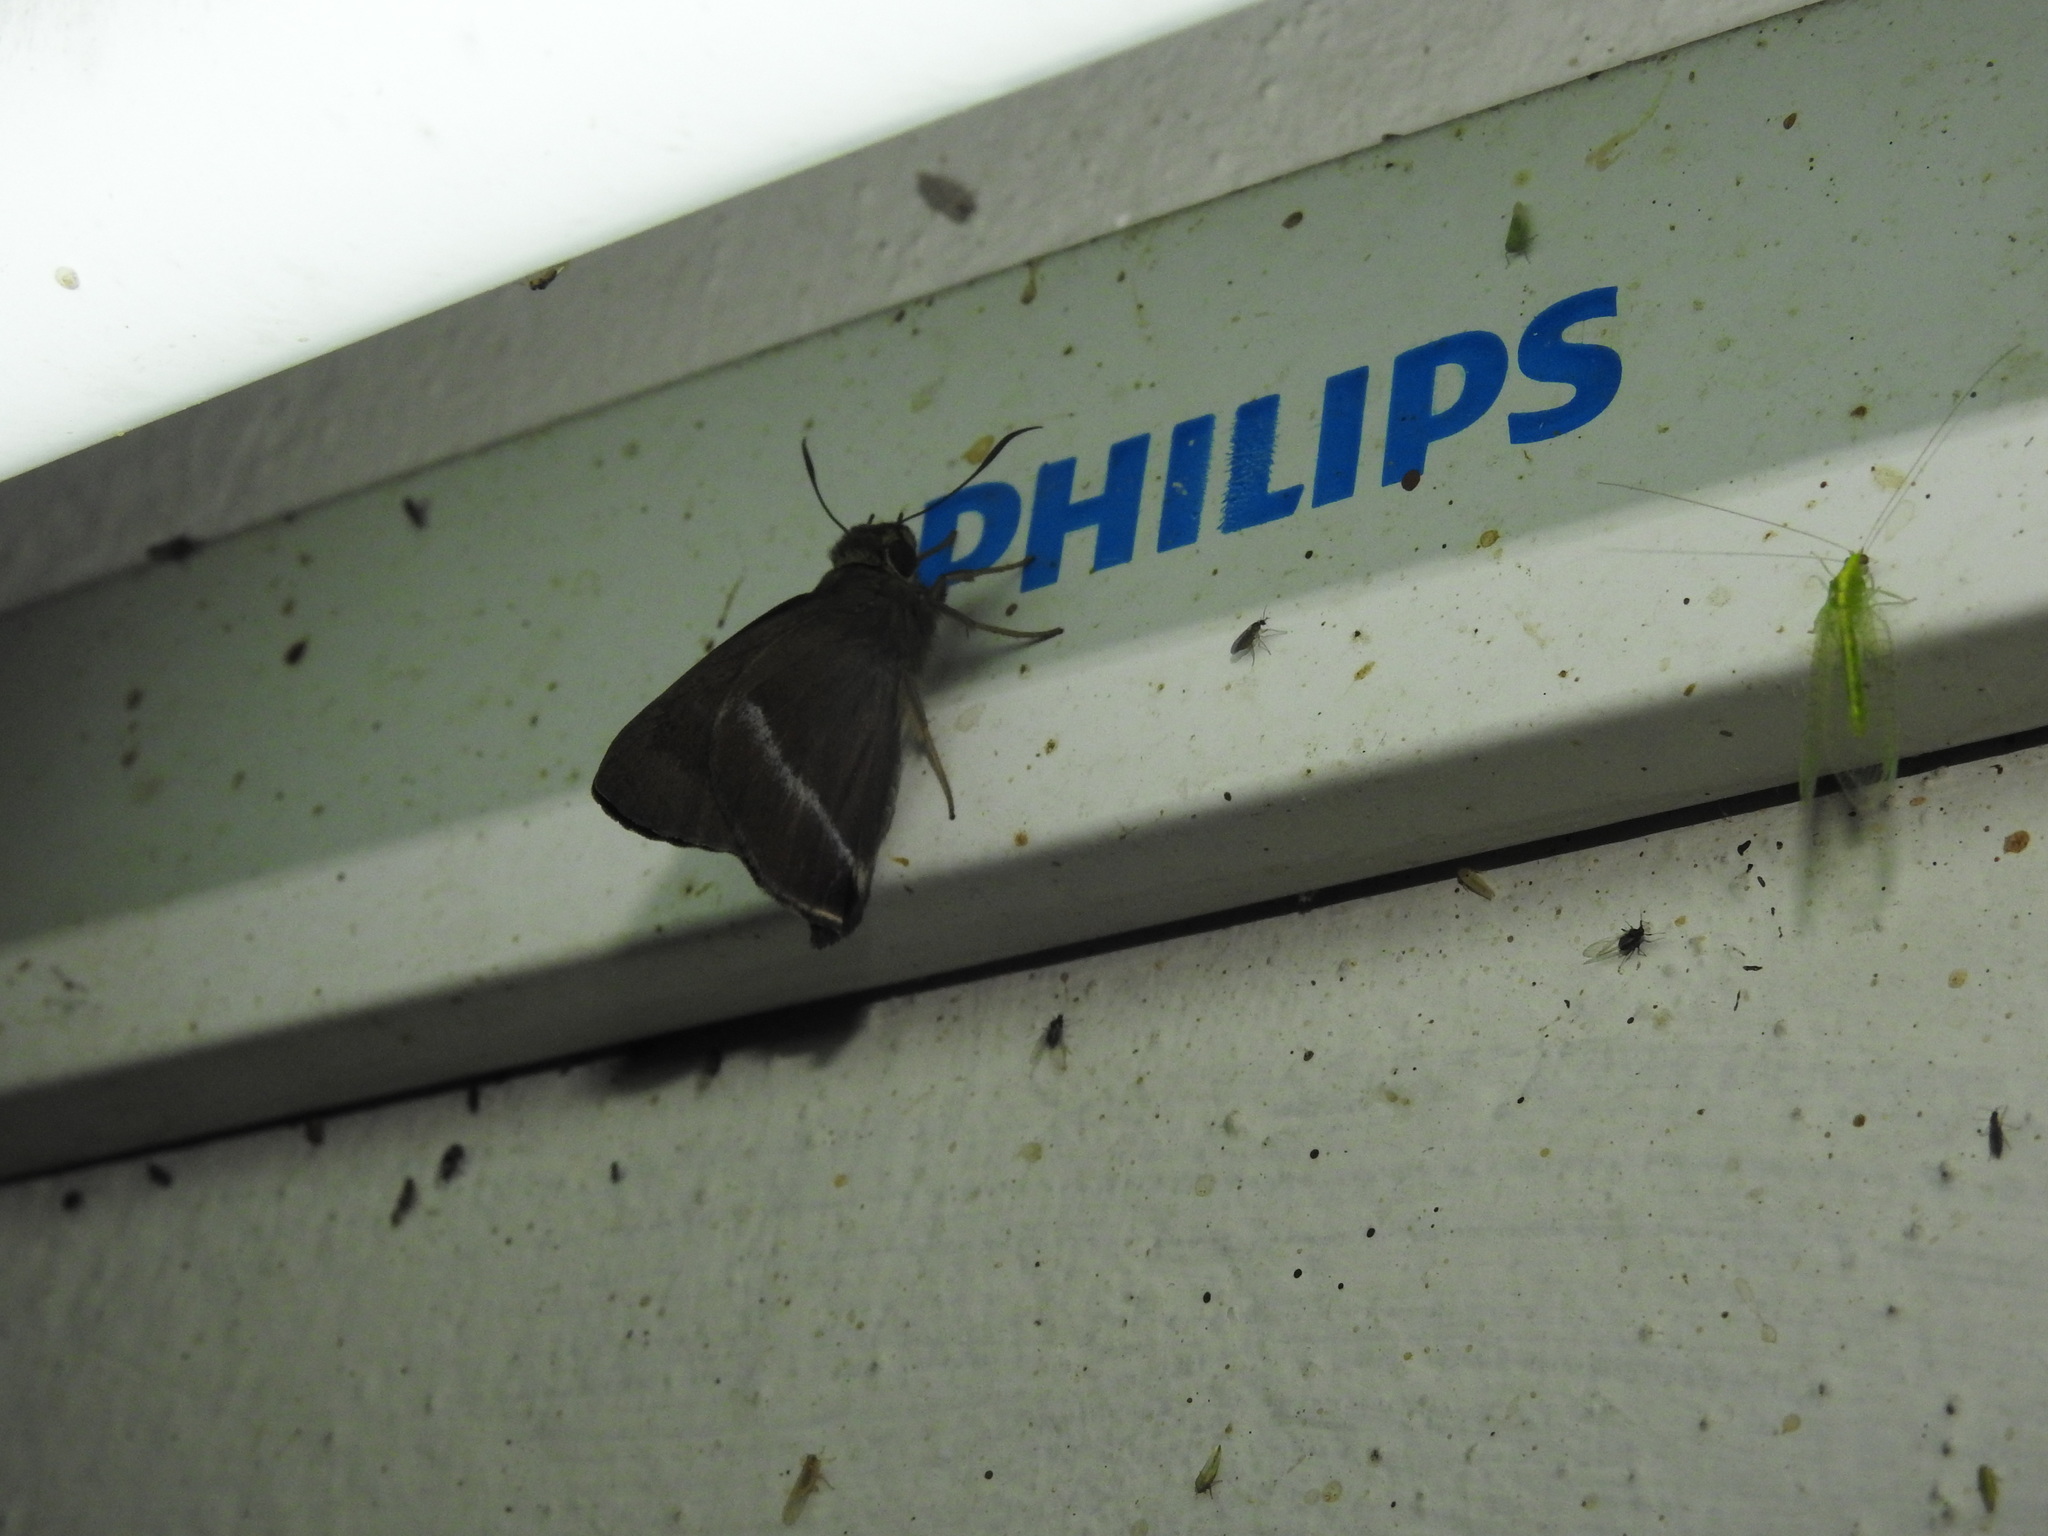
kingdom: Animalia
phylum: Arthropoda
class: Insecta
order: Lepidoptera
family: Hesperiidae
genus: Hasora
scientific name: Hasora chromus
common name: Common banded awl
